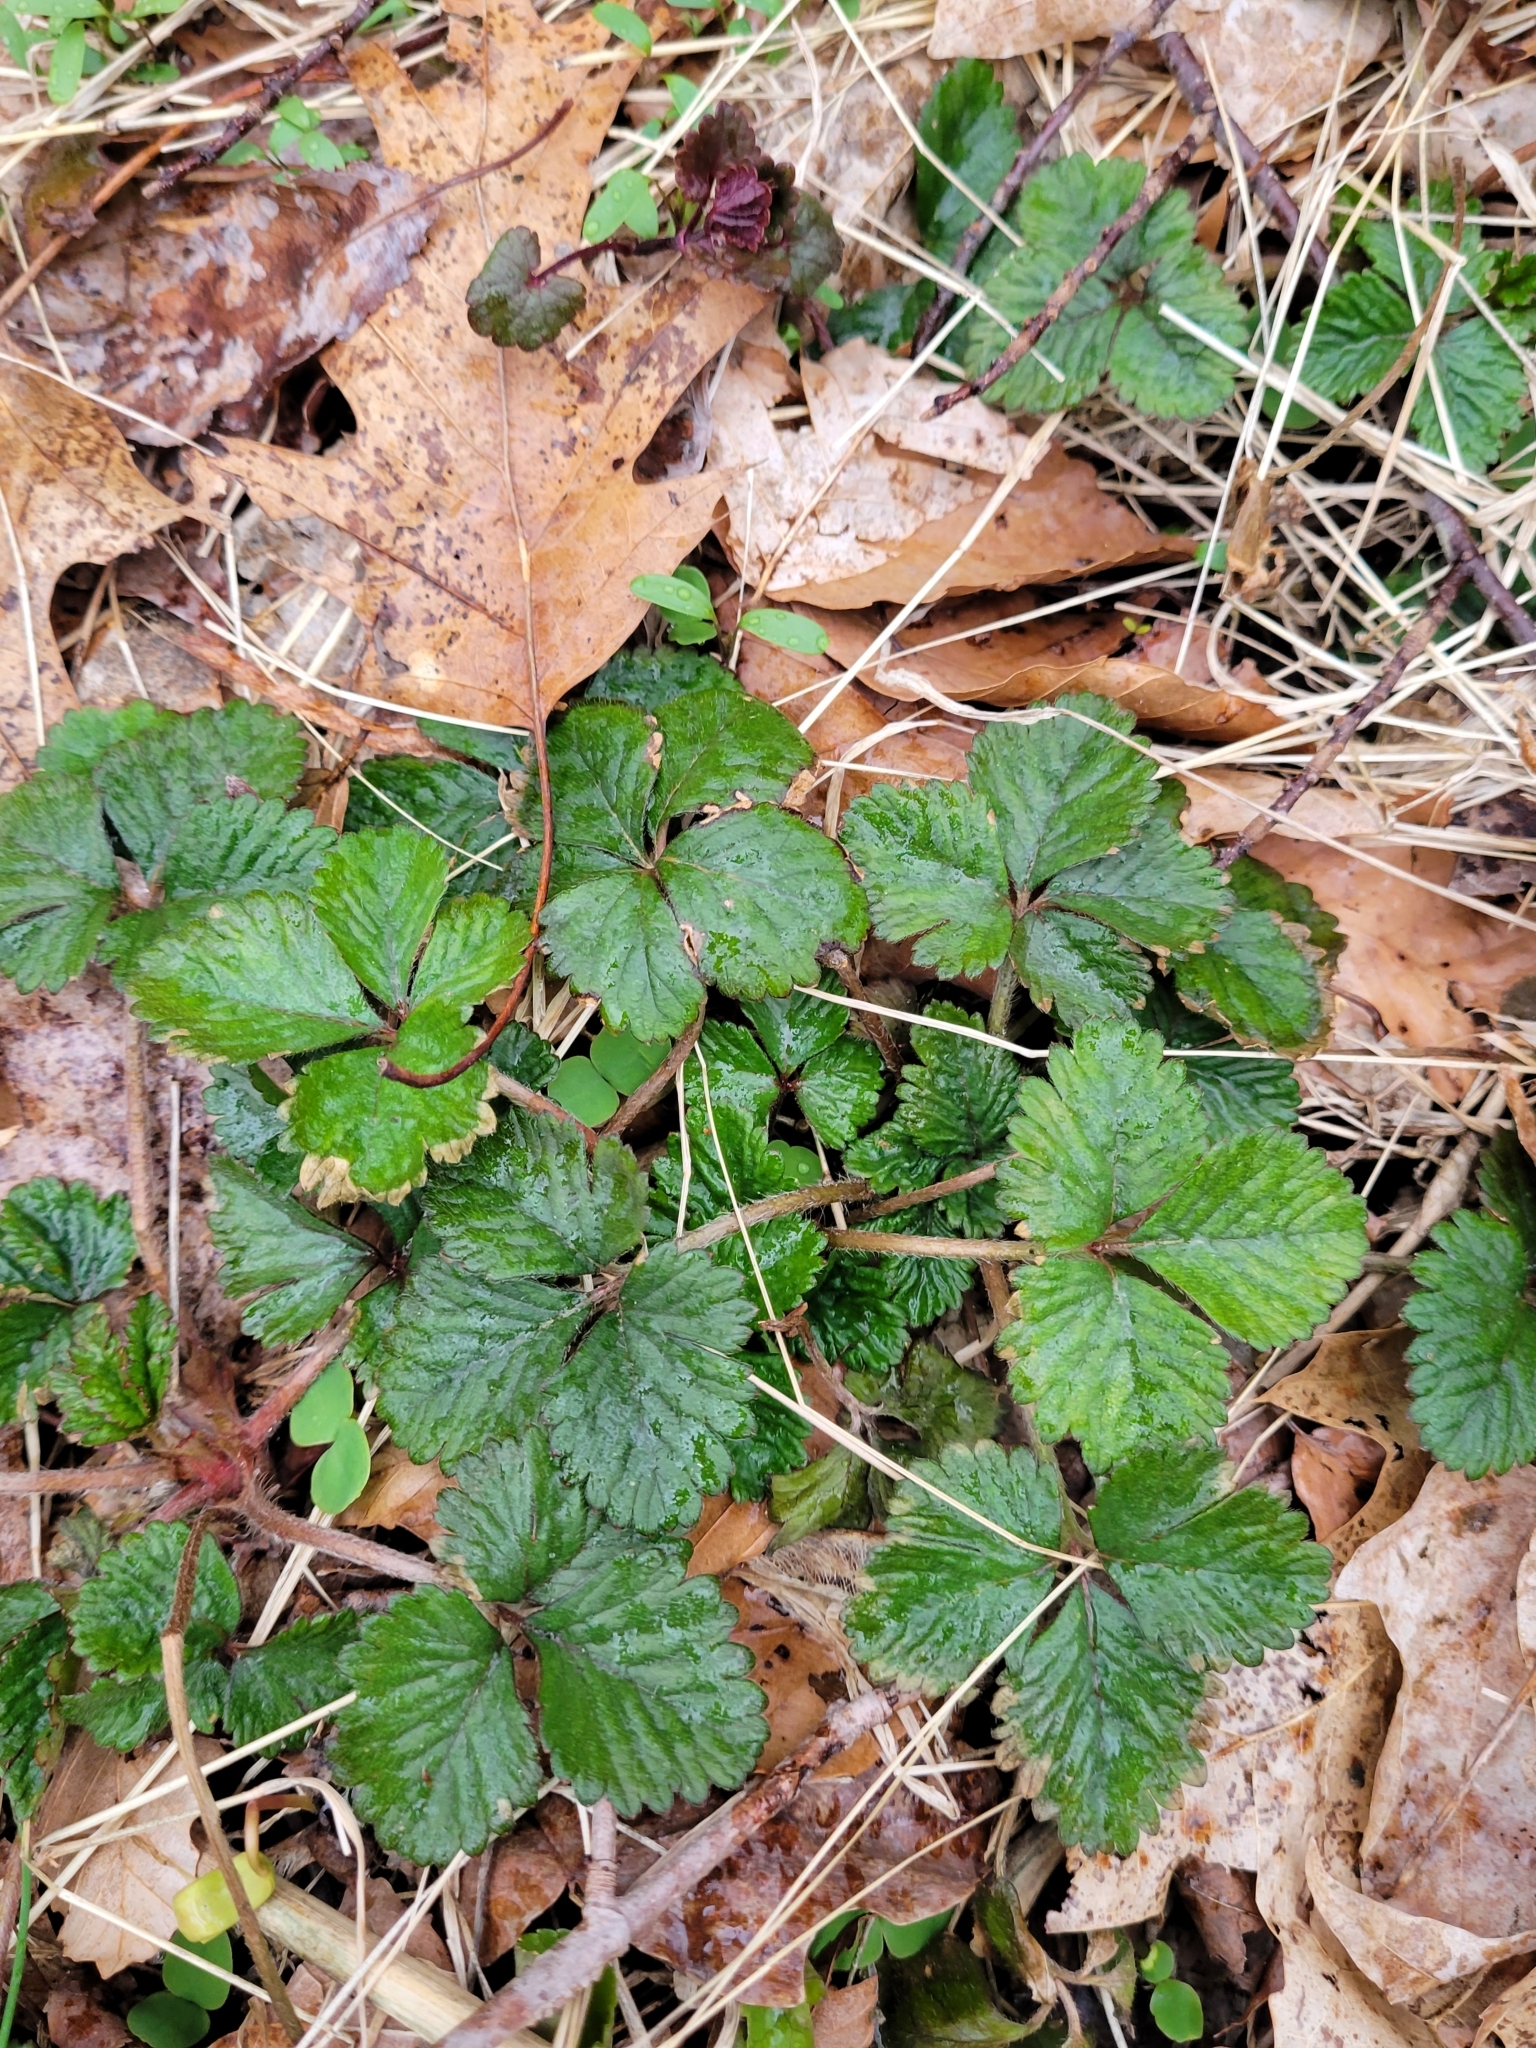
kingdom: Plantae
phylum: Tracheophyta
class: Magnoliopsida
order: Rosales
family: Rosaceae
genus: Potentilla
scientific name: Potentilla indica
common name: Yellow-flowered strawberry
